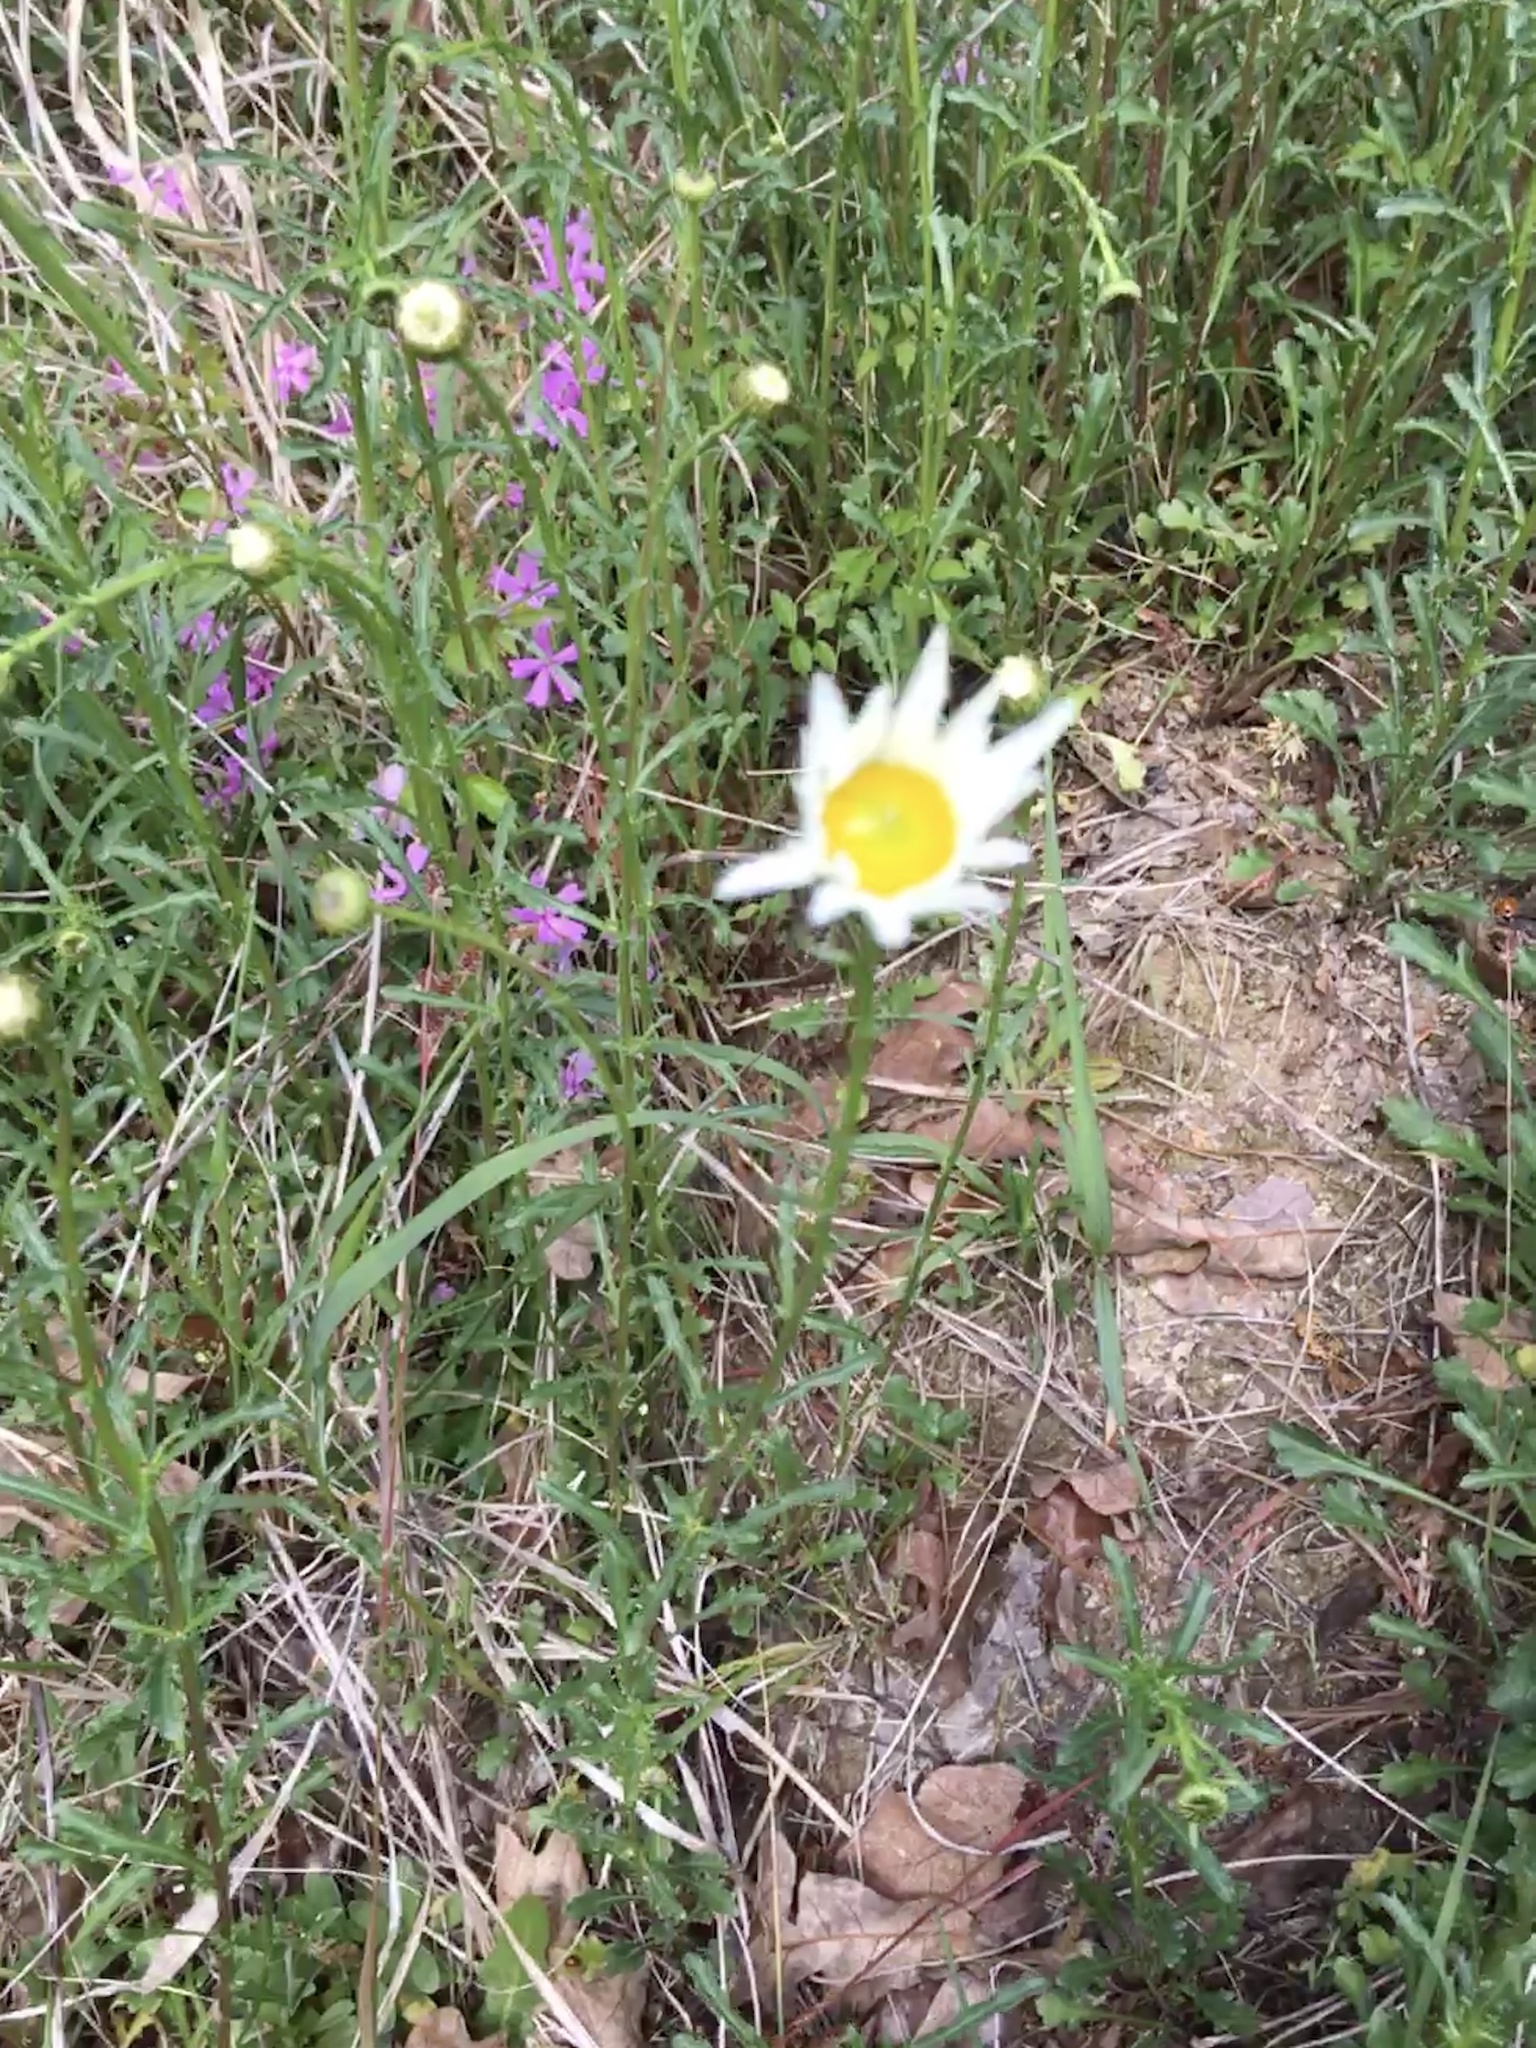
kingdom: Plantae
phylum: Tracheophyta
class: Magnoliopsida
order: Asterales
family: Asteraceae
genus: Leucanthemum
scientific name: Leucanthemum vulgare
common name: Oxeye daisy
